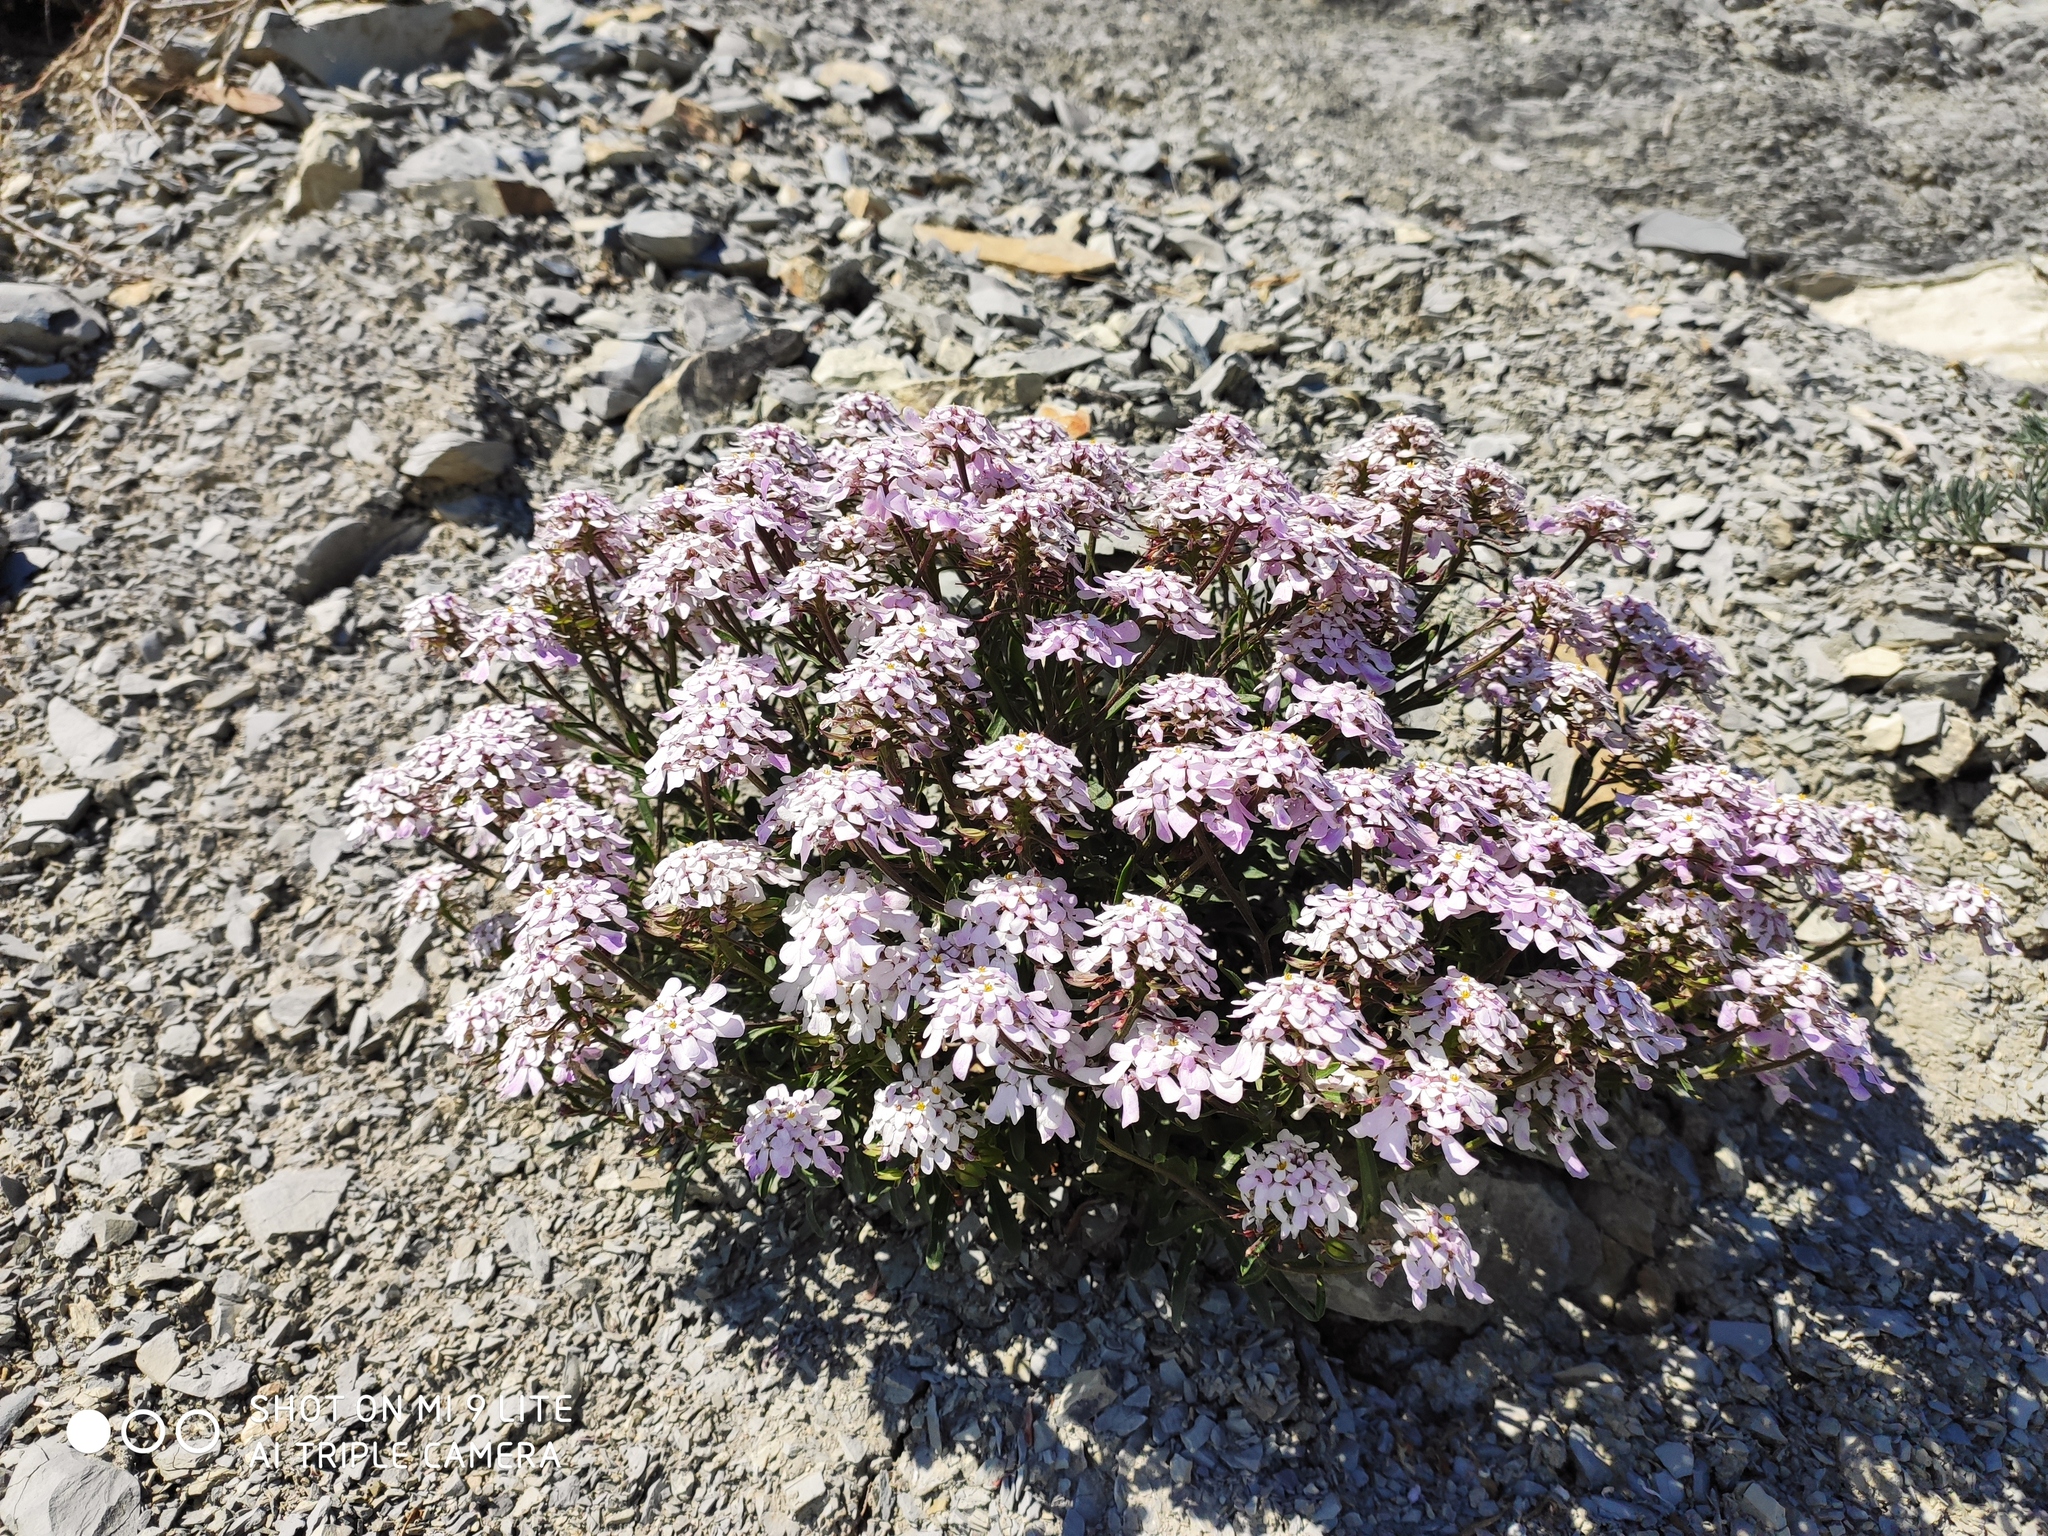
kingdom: Plantae
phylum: Tracheophyta
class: Magnoliopsida
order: Brassicales
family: Brassicaceae
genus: Iberis
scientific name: Iberis simplex
